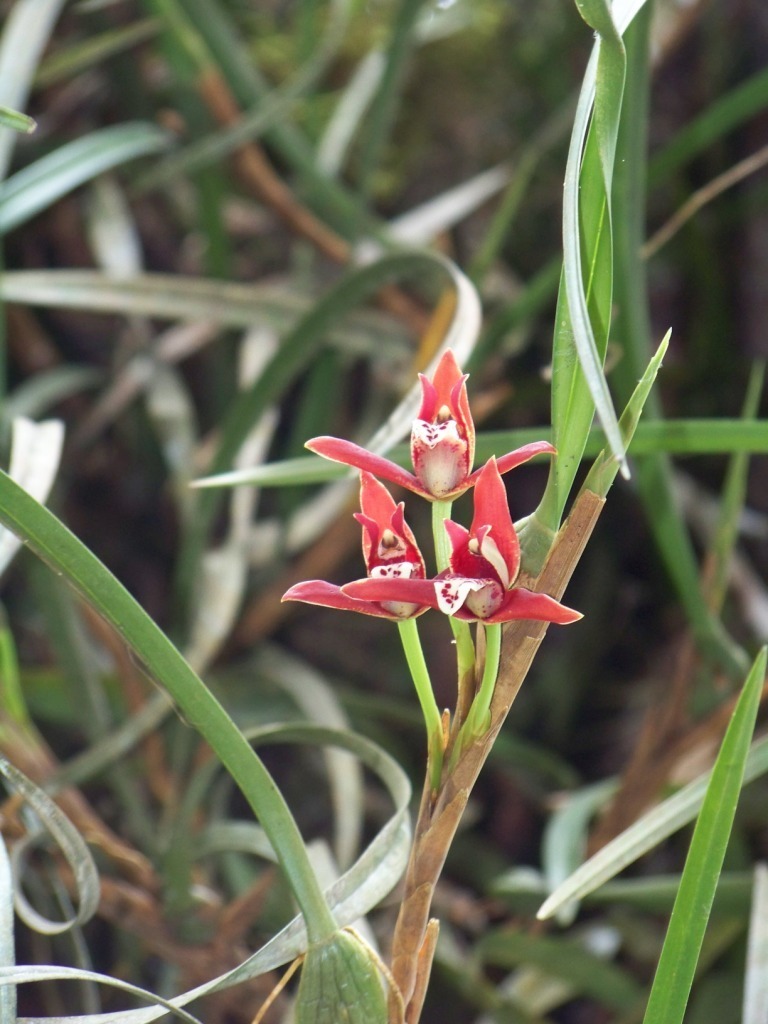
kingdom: Plantae
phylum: Tracheophyta
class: Liliopsida
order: Asparagales
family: Orchidaceae
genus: Maxillaria
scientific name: Maxillaria tenuifolia
